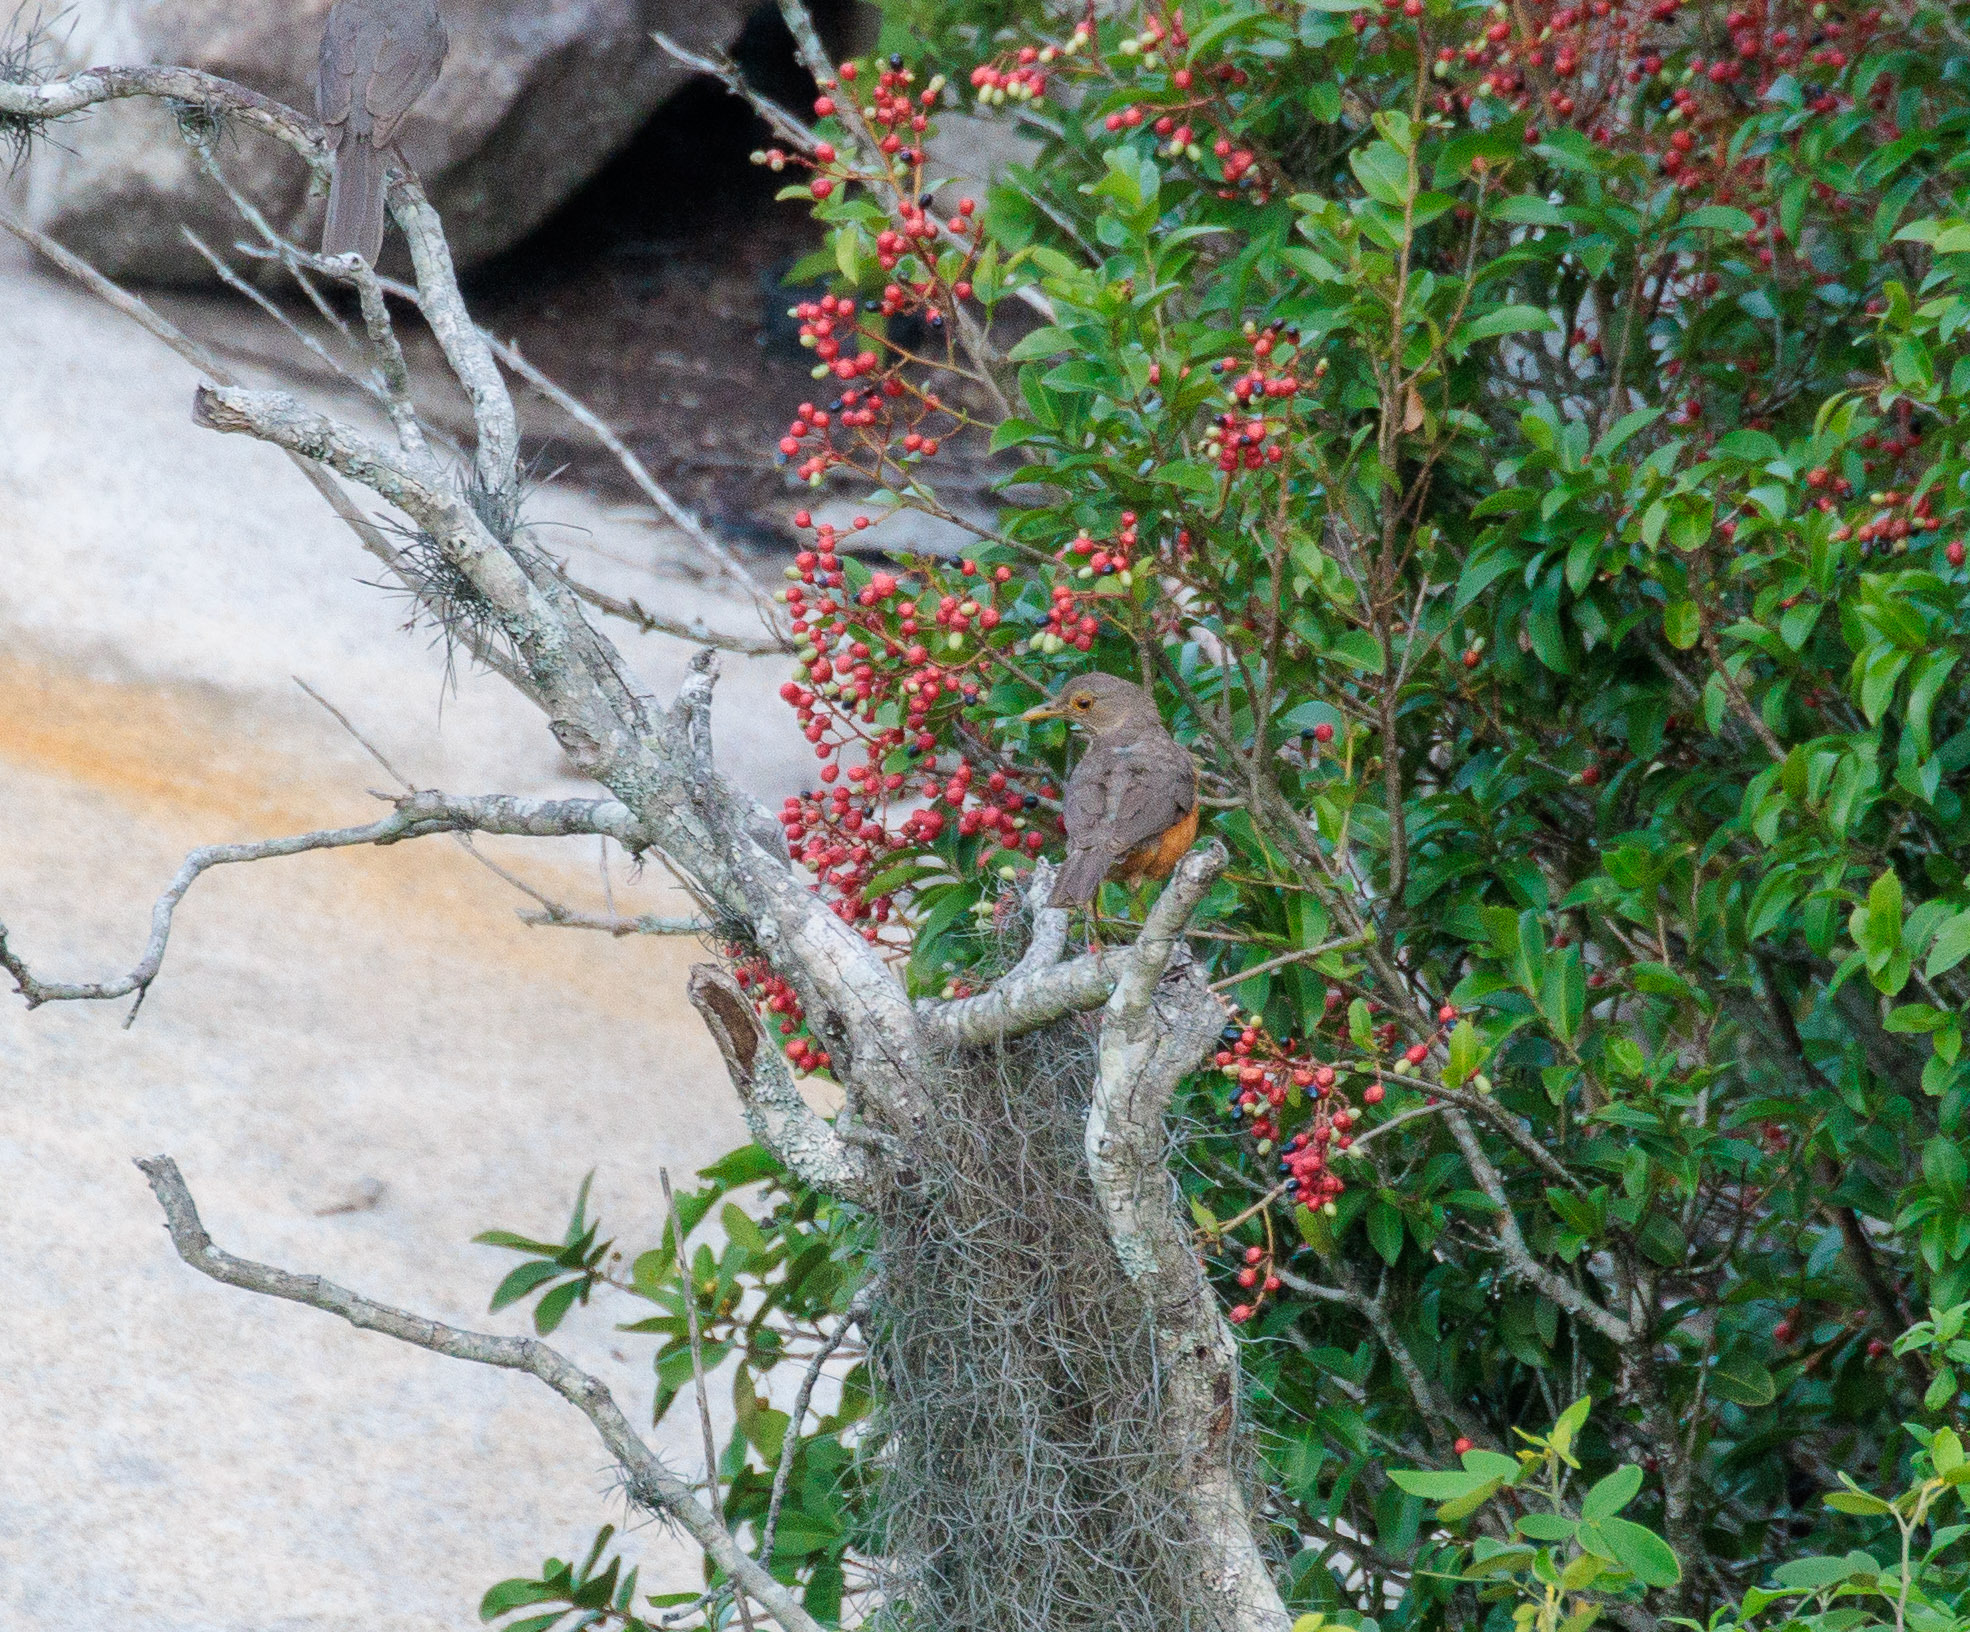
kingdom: Animalia
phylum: Chordata
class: Aves
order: Passeriformes
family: Turdidae
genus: Turdus
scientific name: Turdus rufiventris
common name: Rufous-bellied thrush
